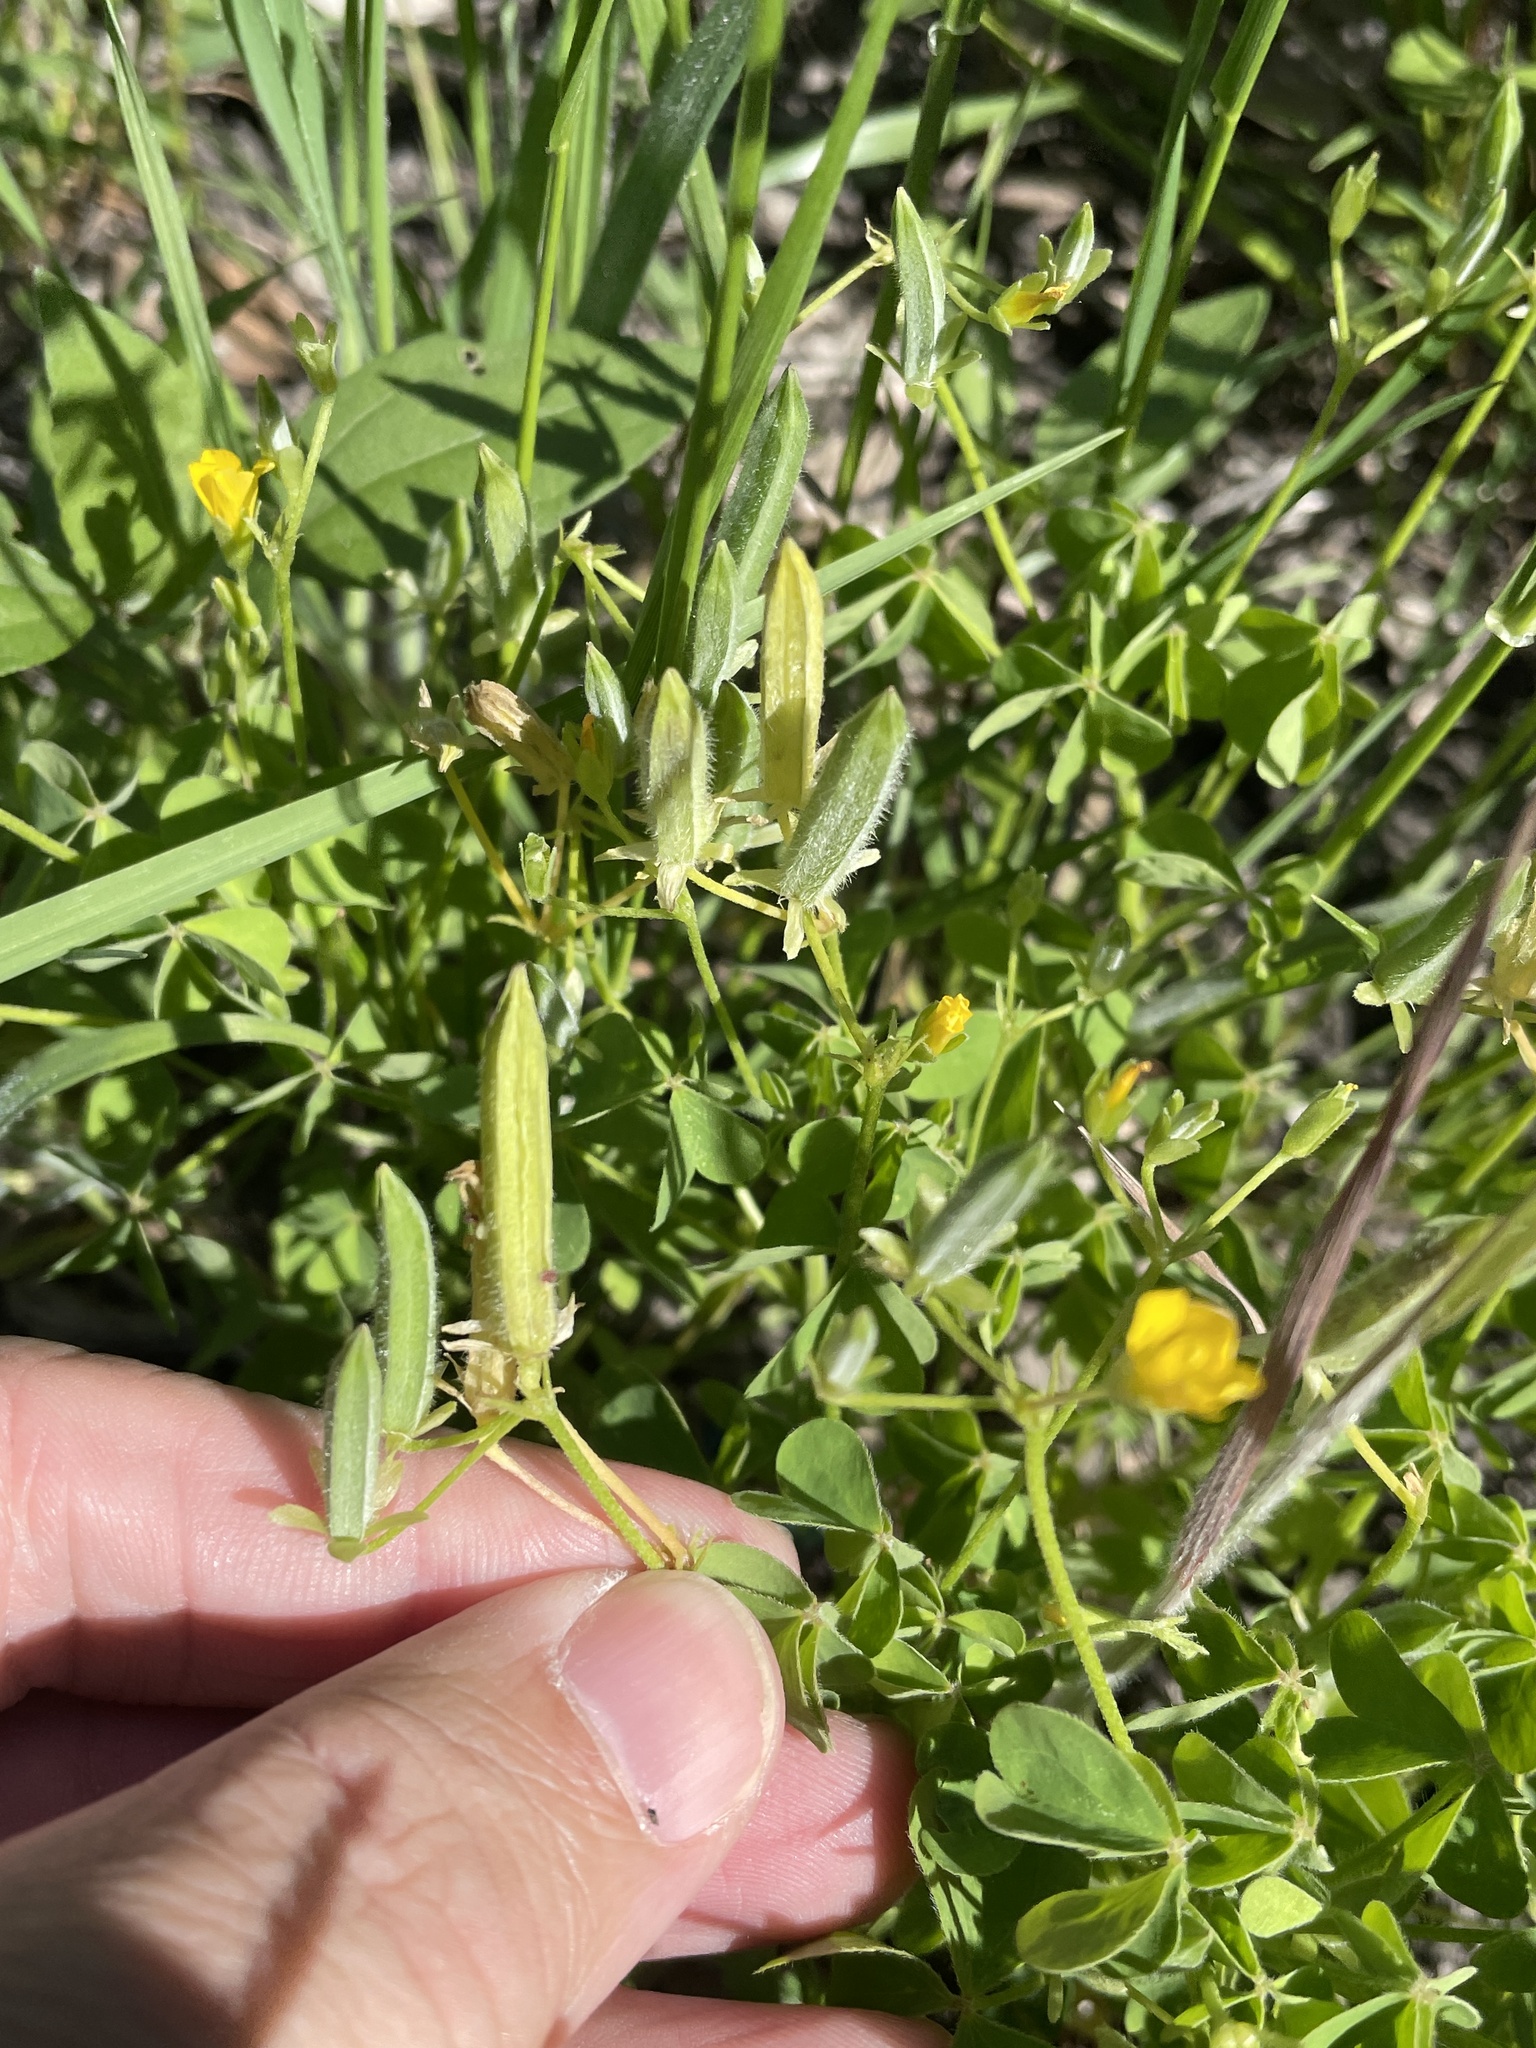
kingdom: Plantae
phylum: Tracheophyta
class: Magnoliopsida
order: Oxalidales
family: Oxalidaceae
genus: Oxalis
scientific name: Oxalis dillenii
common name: Sussex yellow-sorrel
